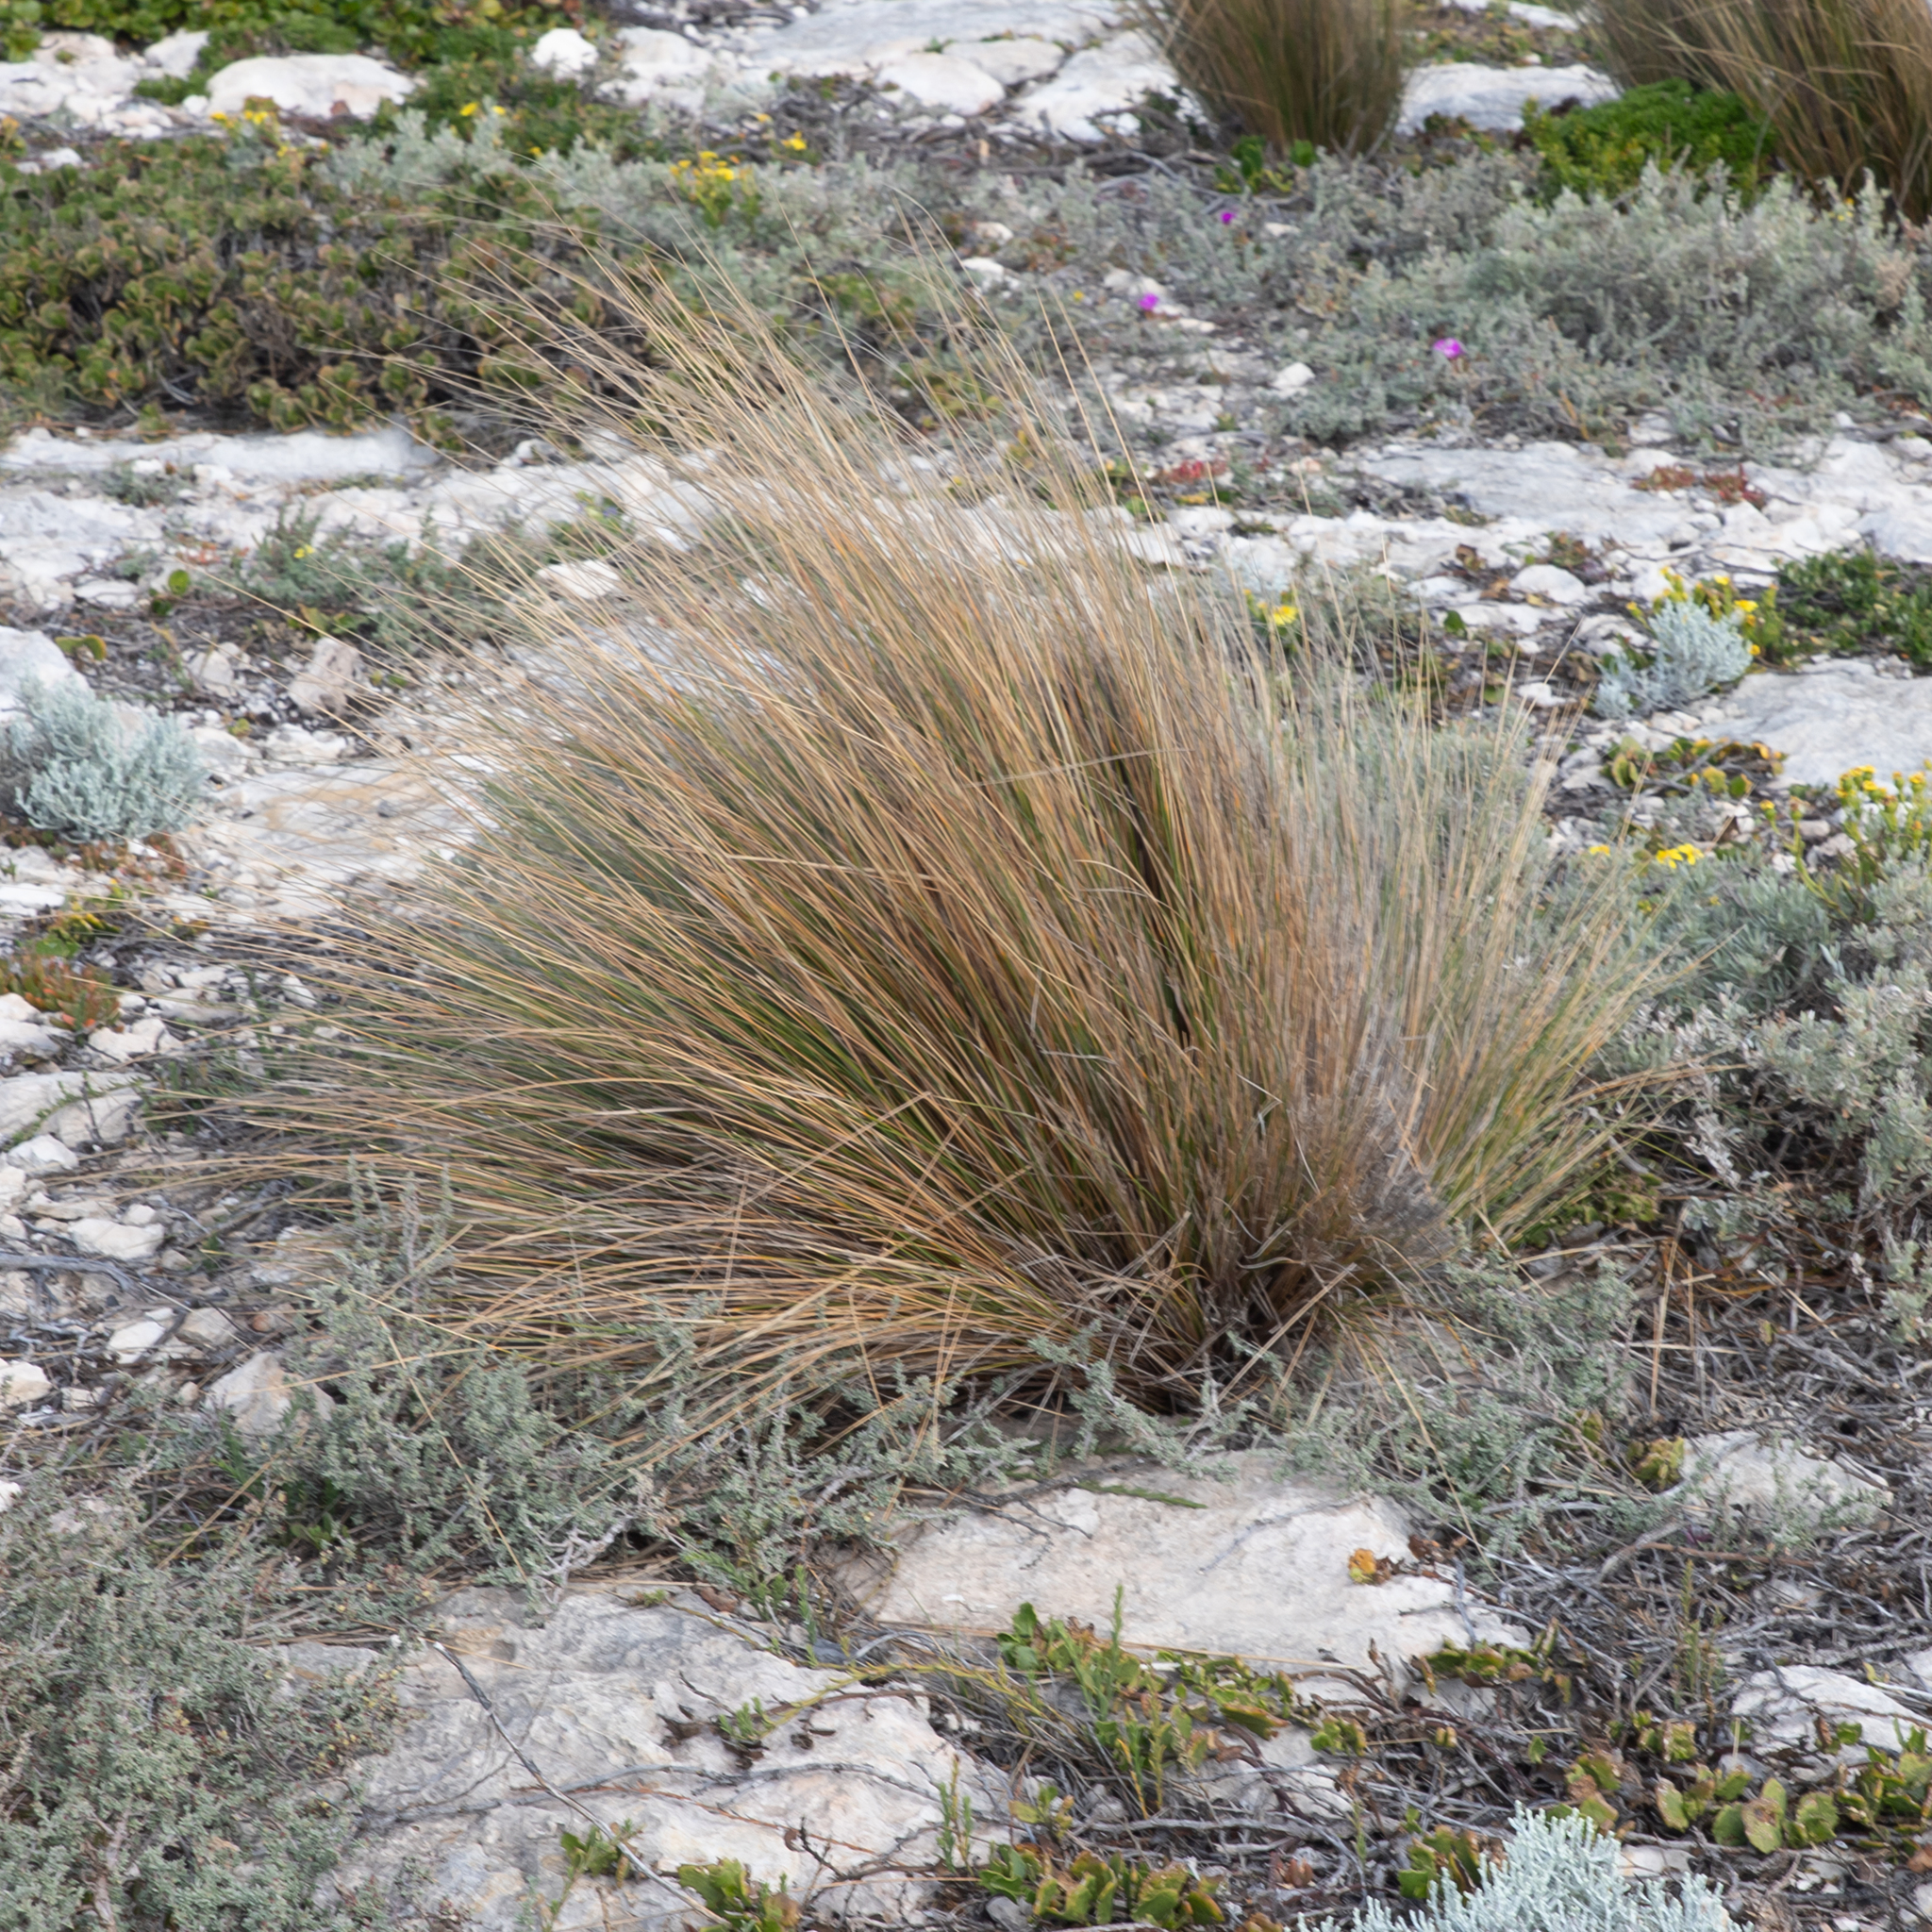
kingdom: Plantae
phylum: Tracheophyta
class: Liliopsida
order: Poales
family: Poaceae
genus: Austrostipa
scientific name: Austrostipa stipoides
